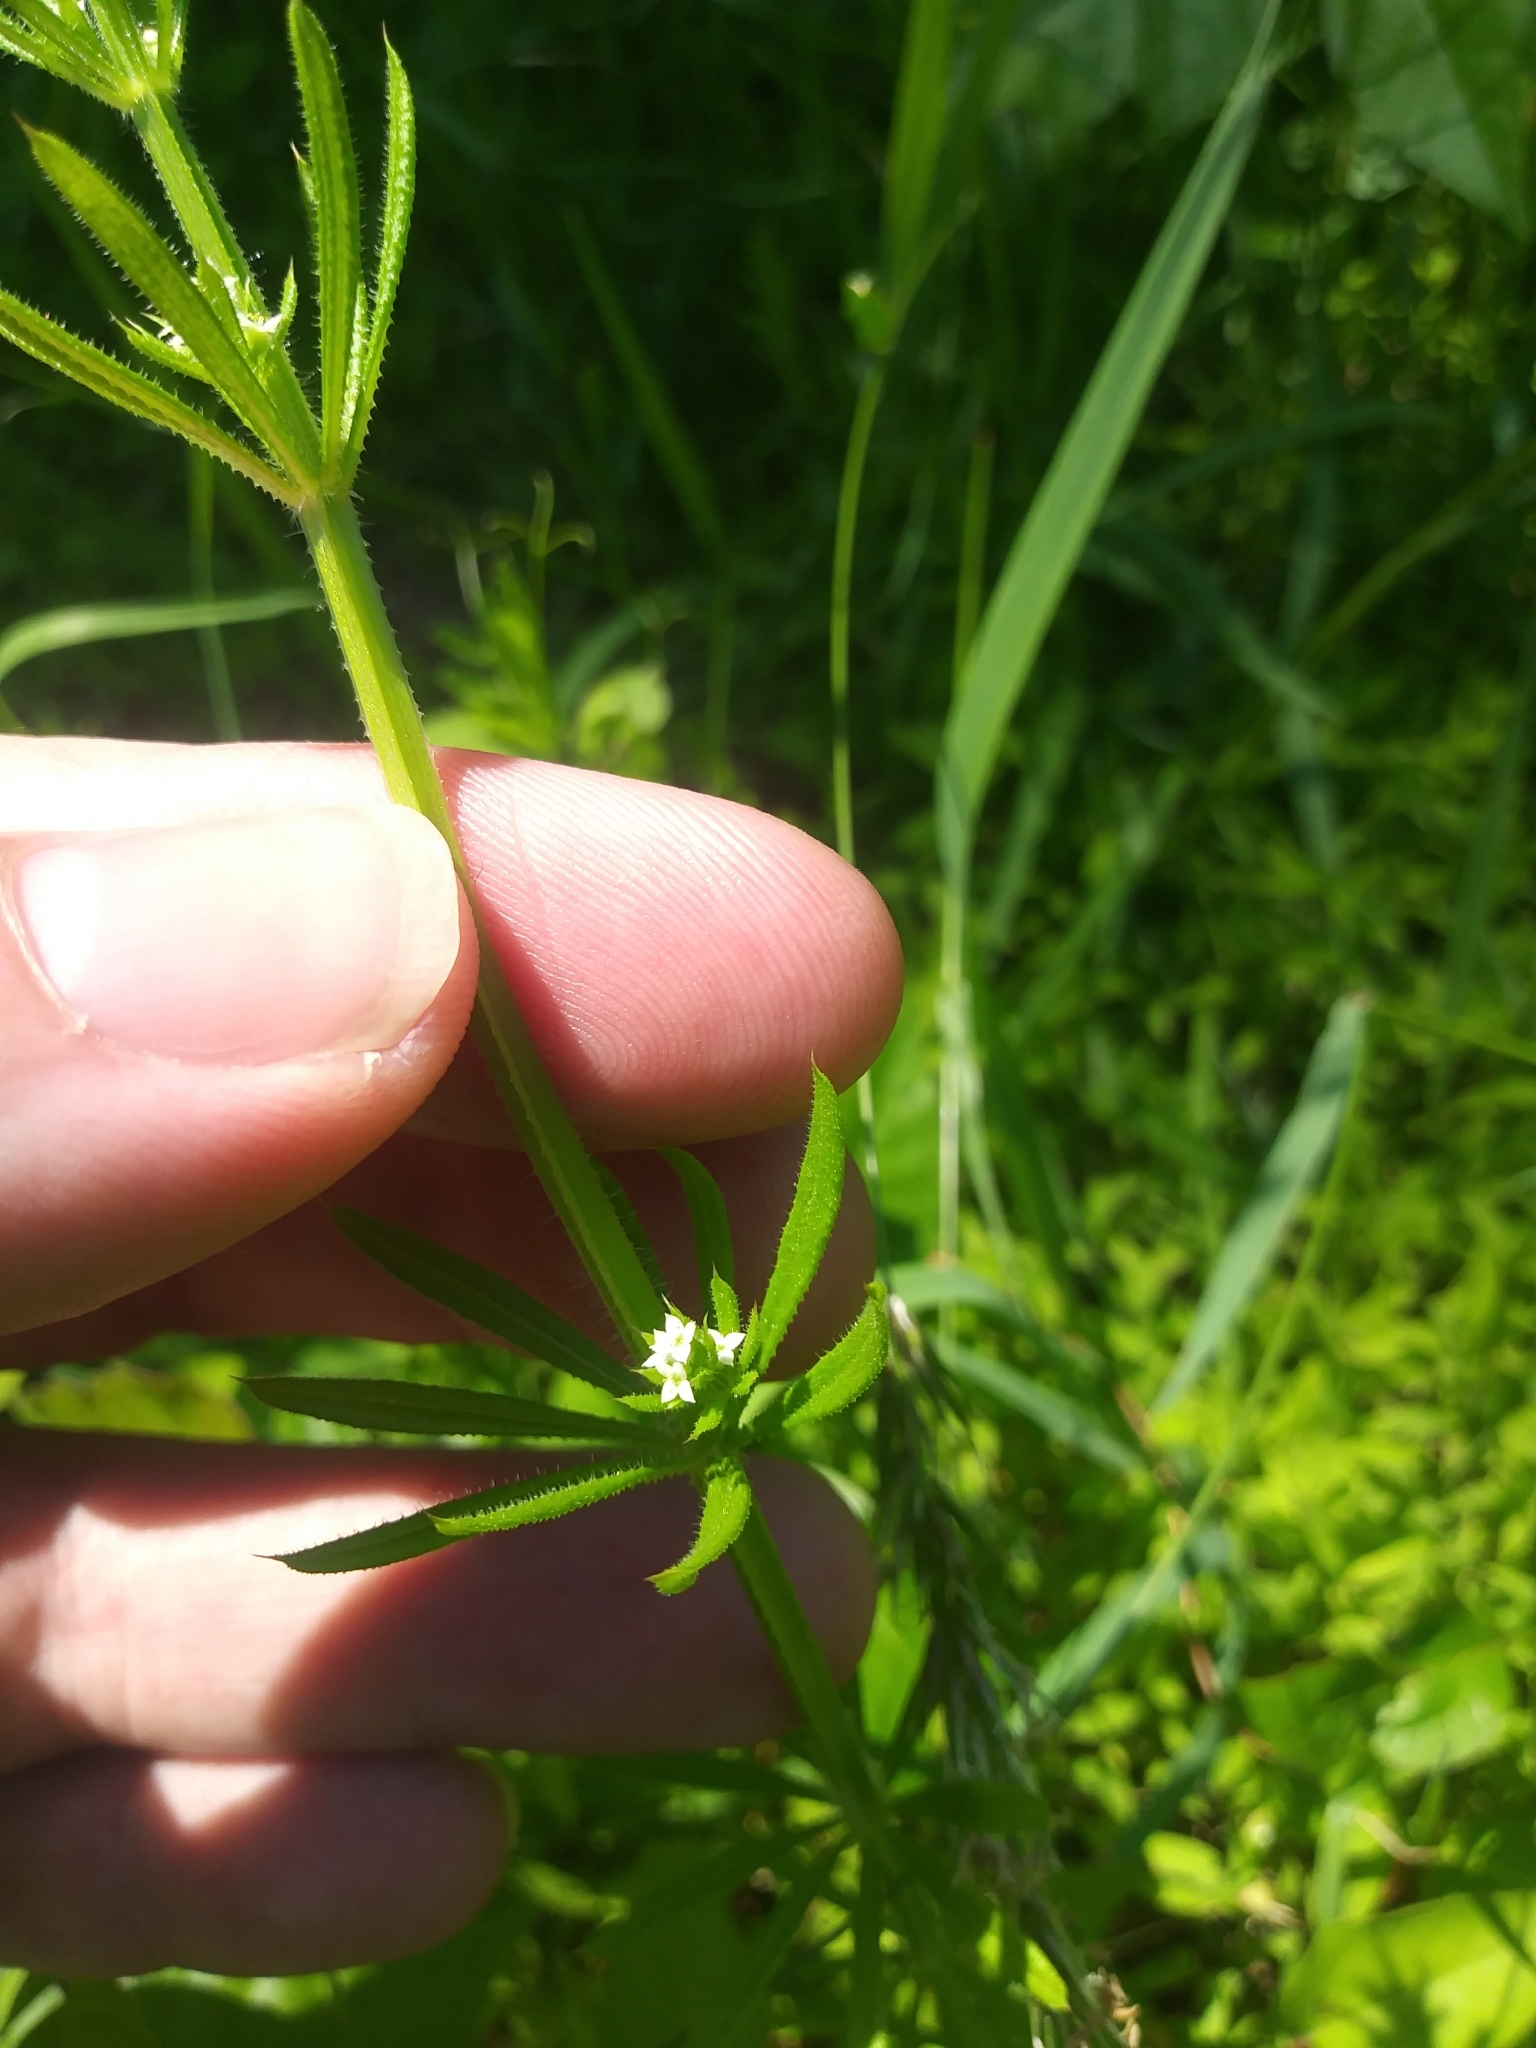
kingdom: Plantae
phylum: Tracheophyta
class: Magnoliopsida
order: Gentianales
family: Rubiaceae
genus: Galium
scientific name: Galium aparine
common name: Cleavers
